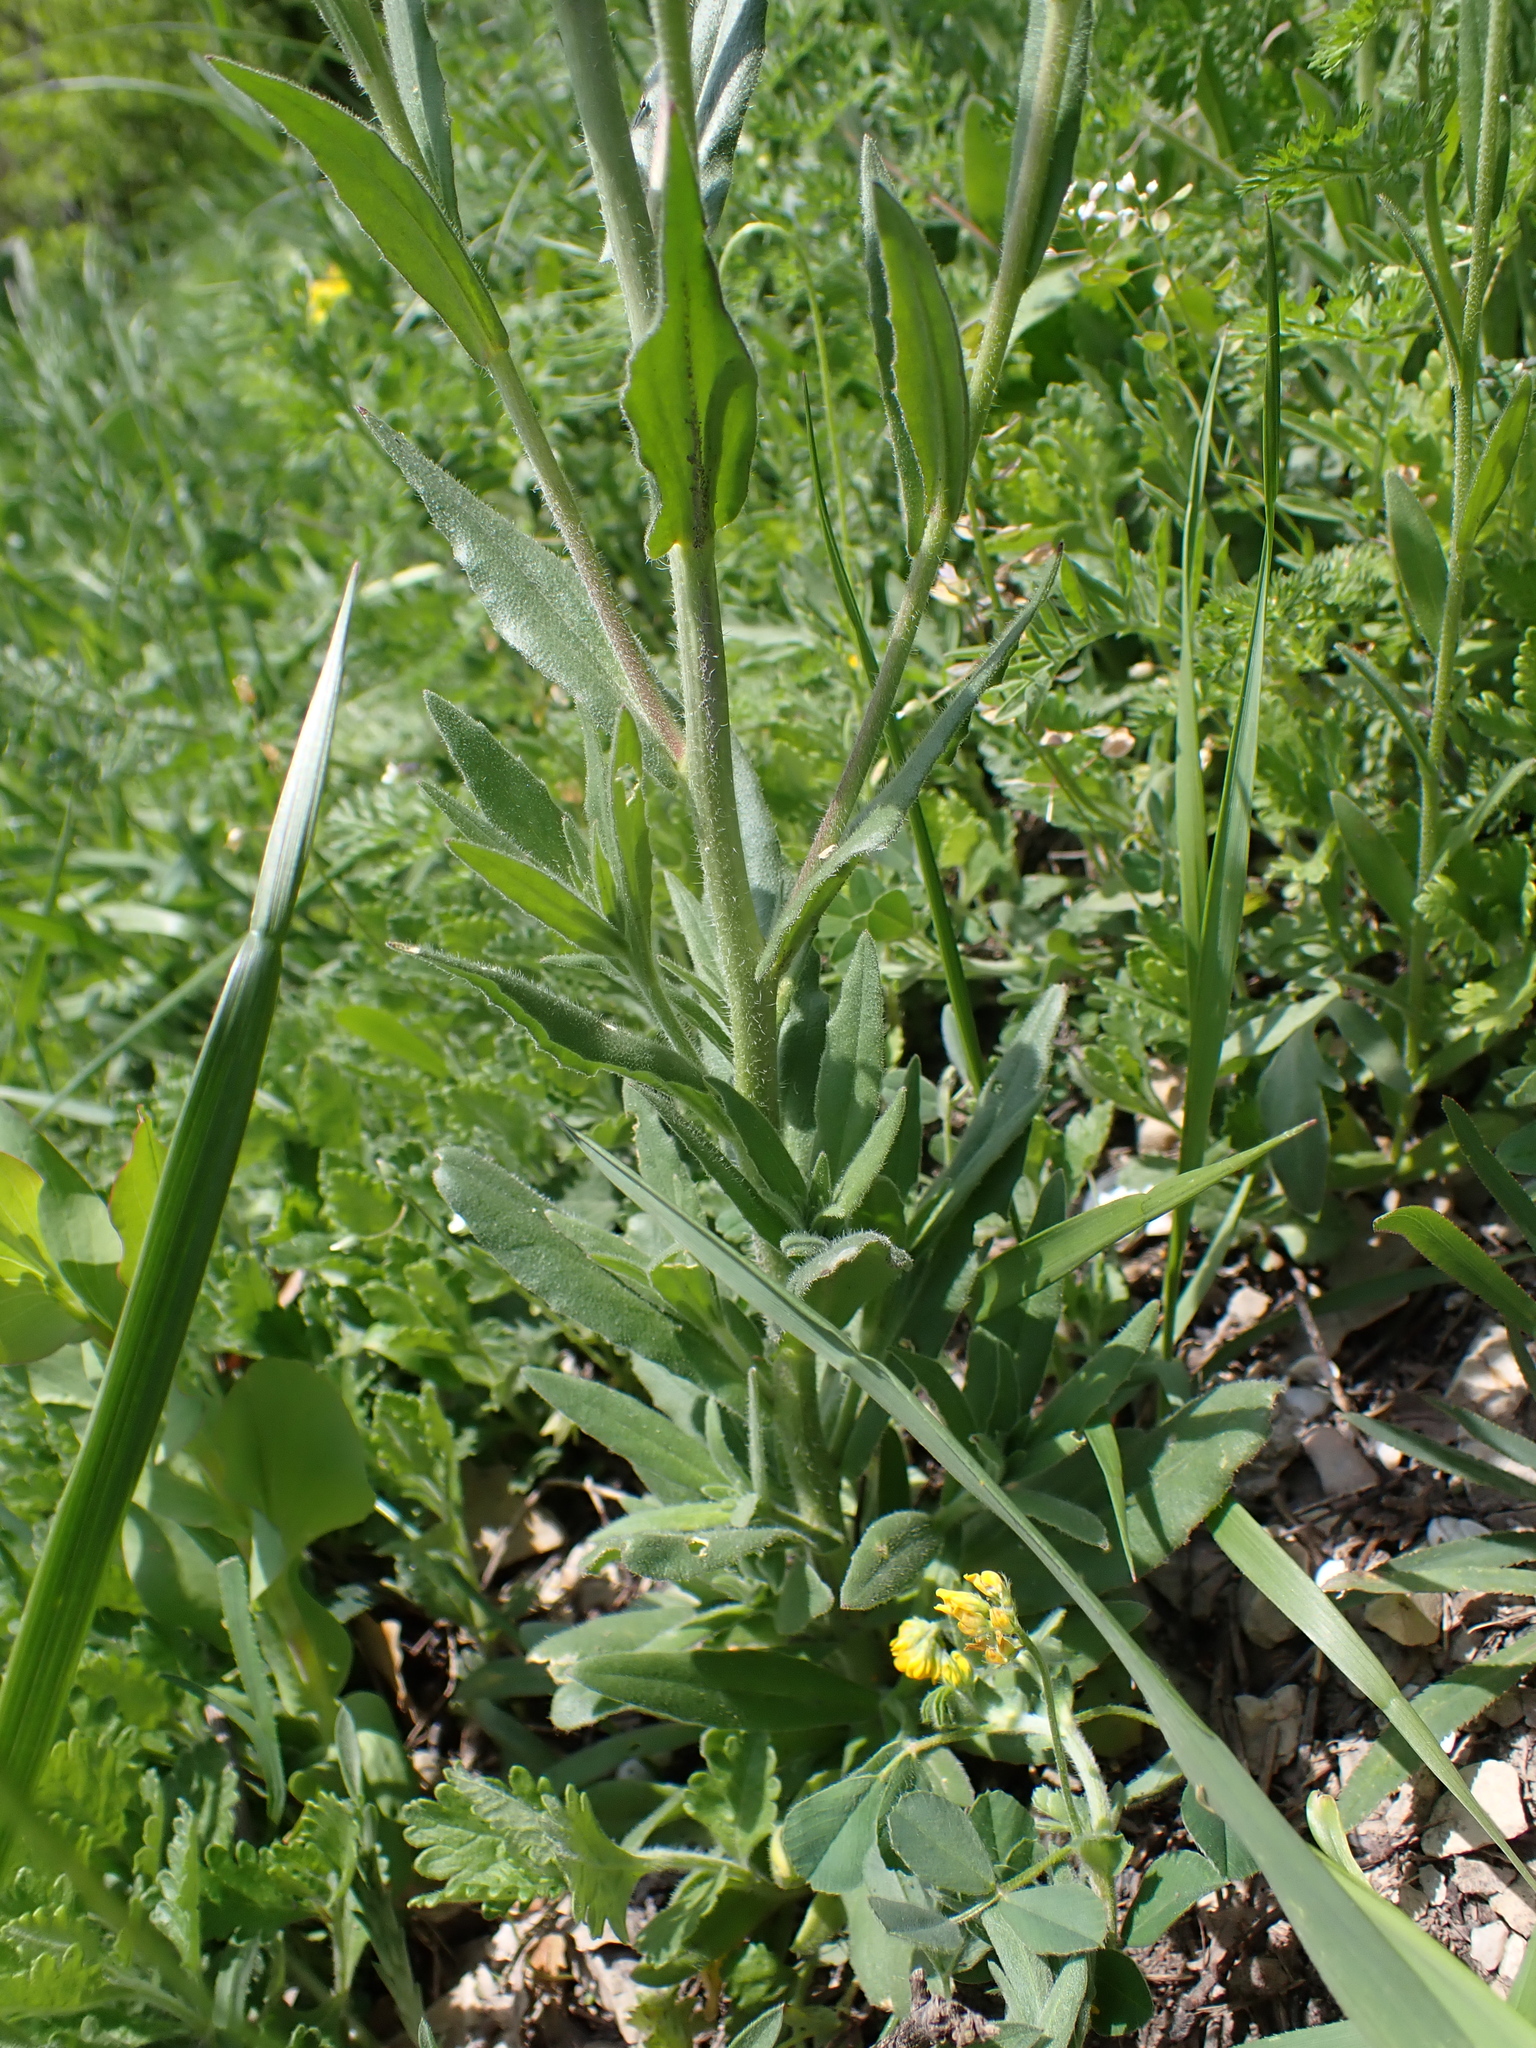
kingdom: Plantae
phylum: Tracheophyta
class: Magnoliopsida
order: Brassicales
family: Brassicaceae
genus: Camelina
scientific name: Camelina microcarpa
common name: Lesser gold-of-pleasure
